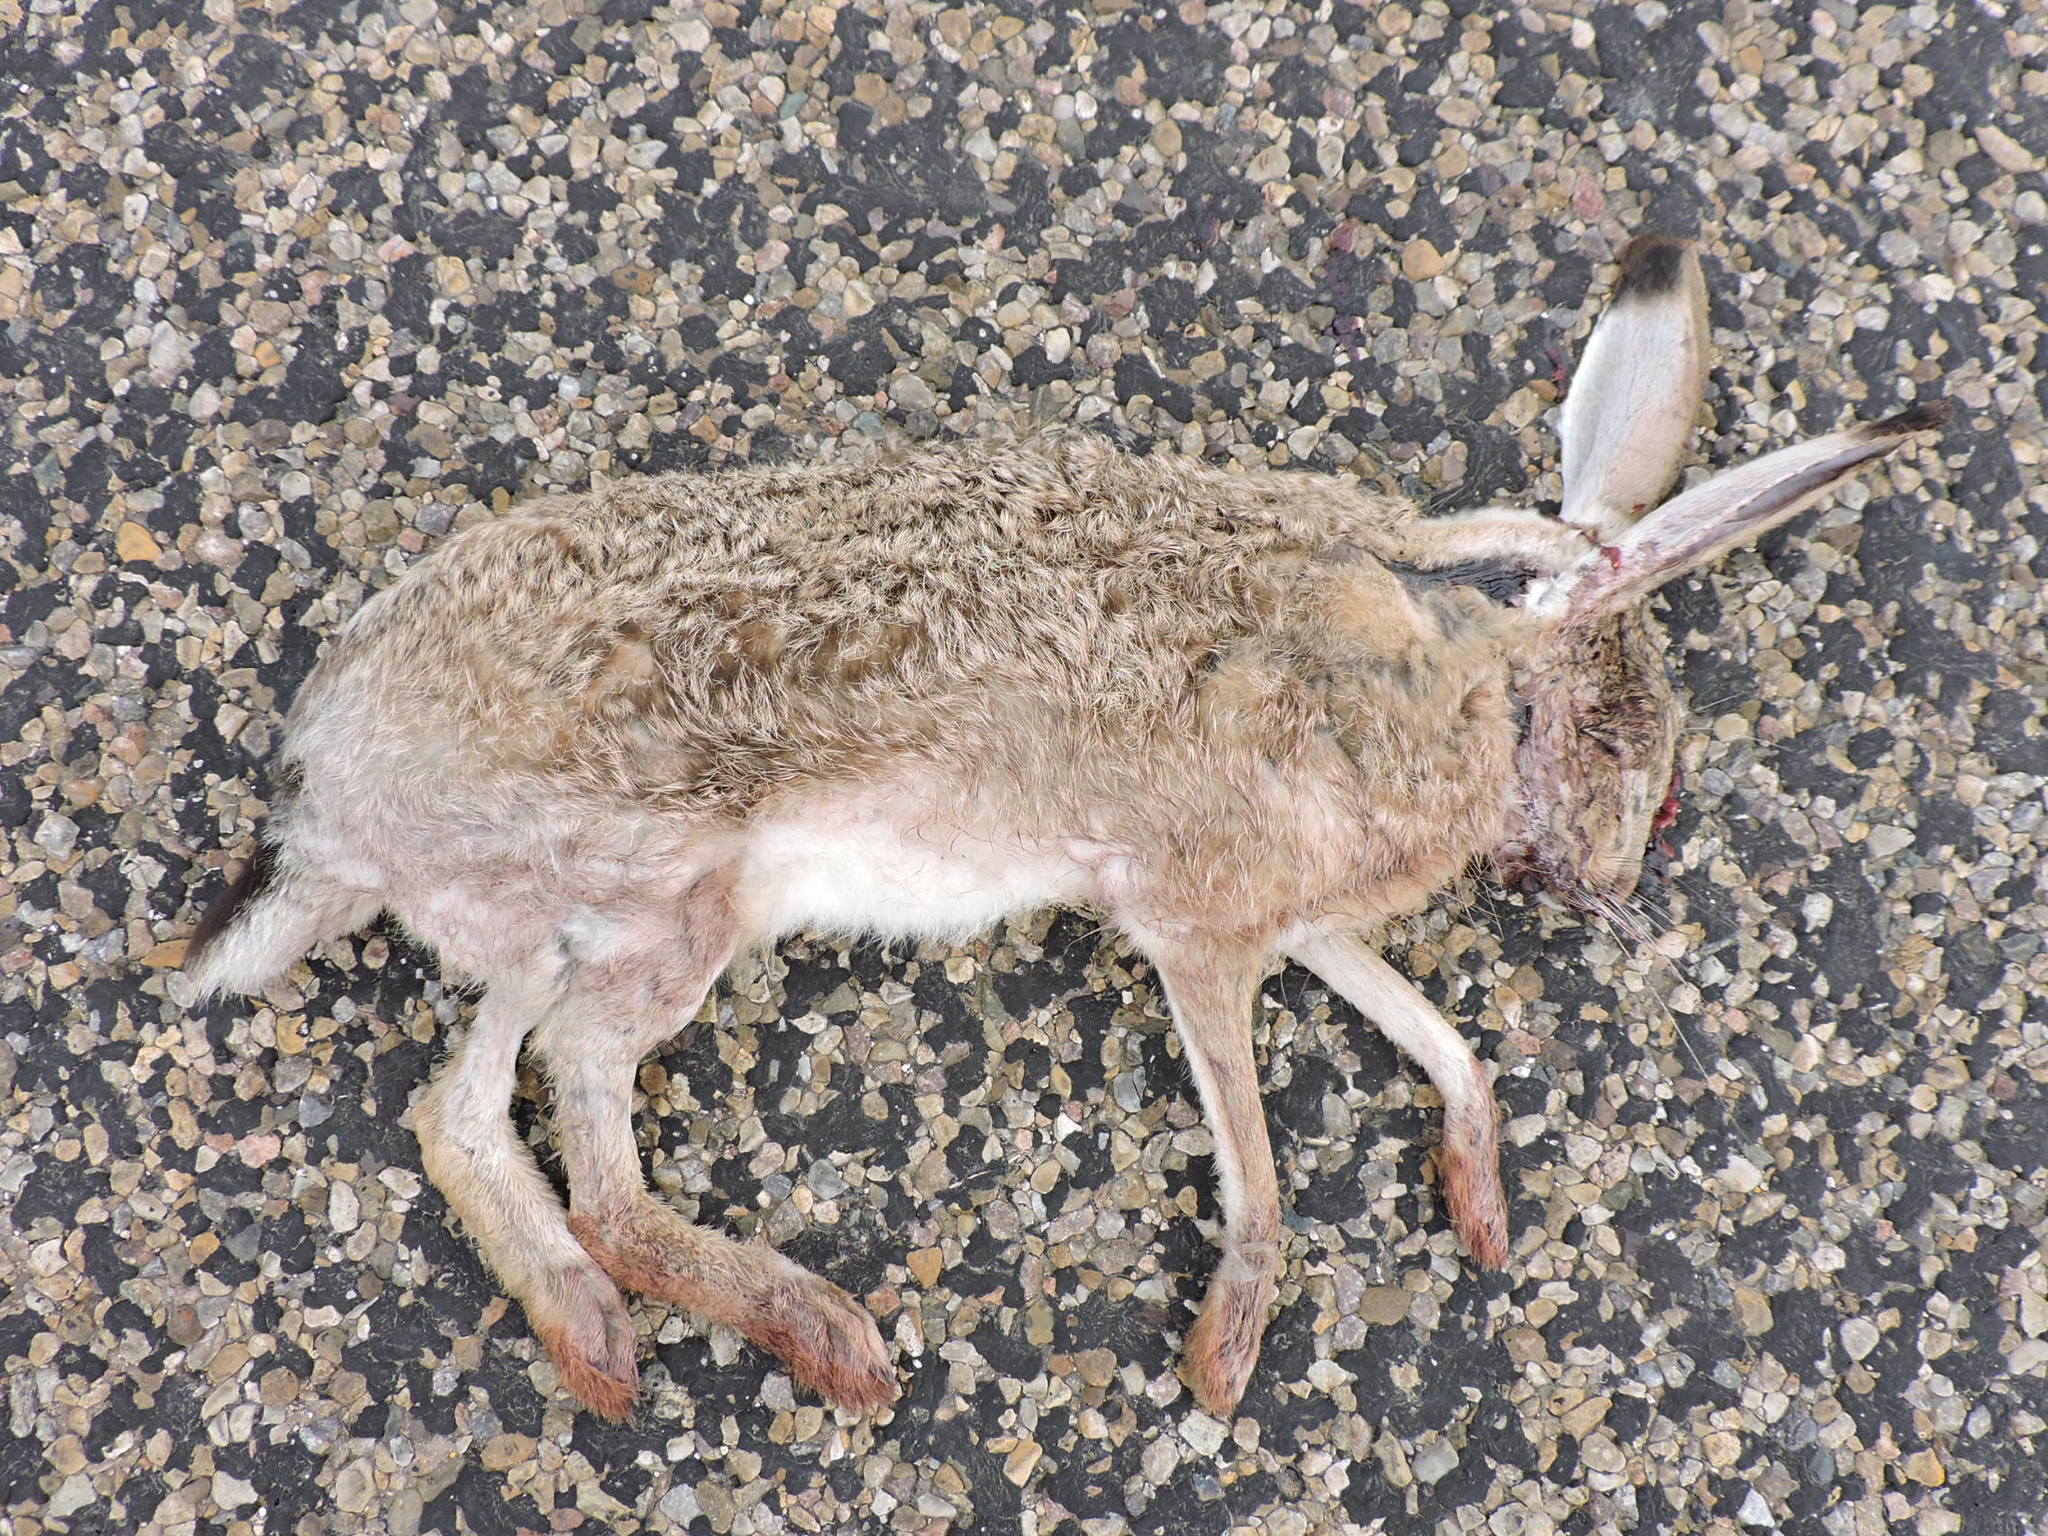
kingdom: Animalia
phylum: Chordata
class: Mammalia
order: Lagomorpha
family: Leporidae
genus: Lepus
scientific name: Lepus californicus
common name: Black-tailed jackrabbit
